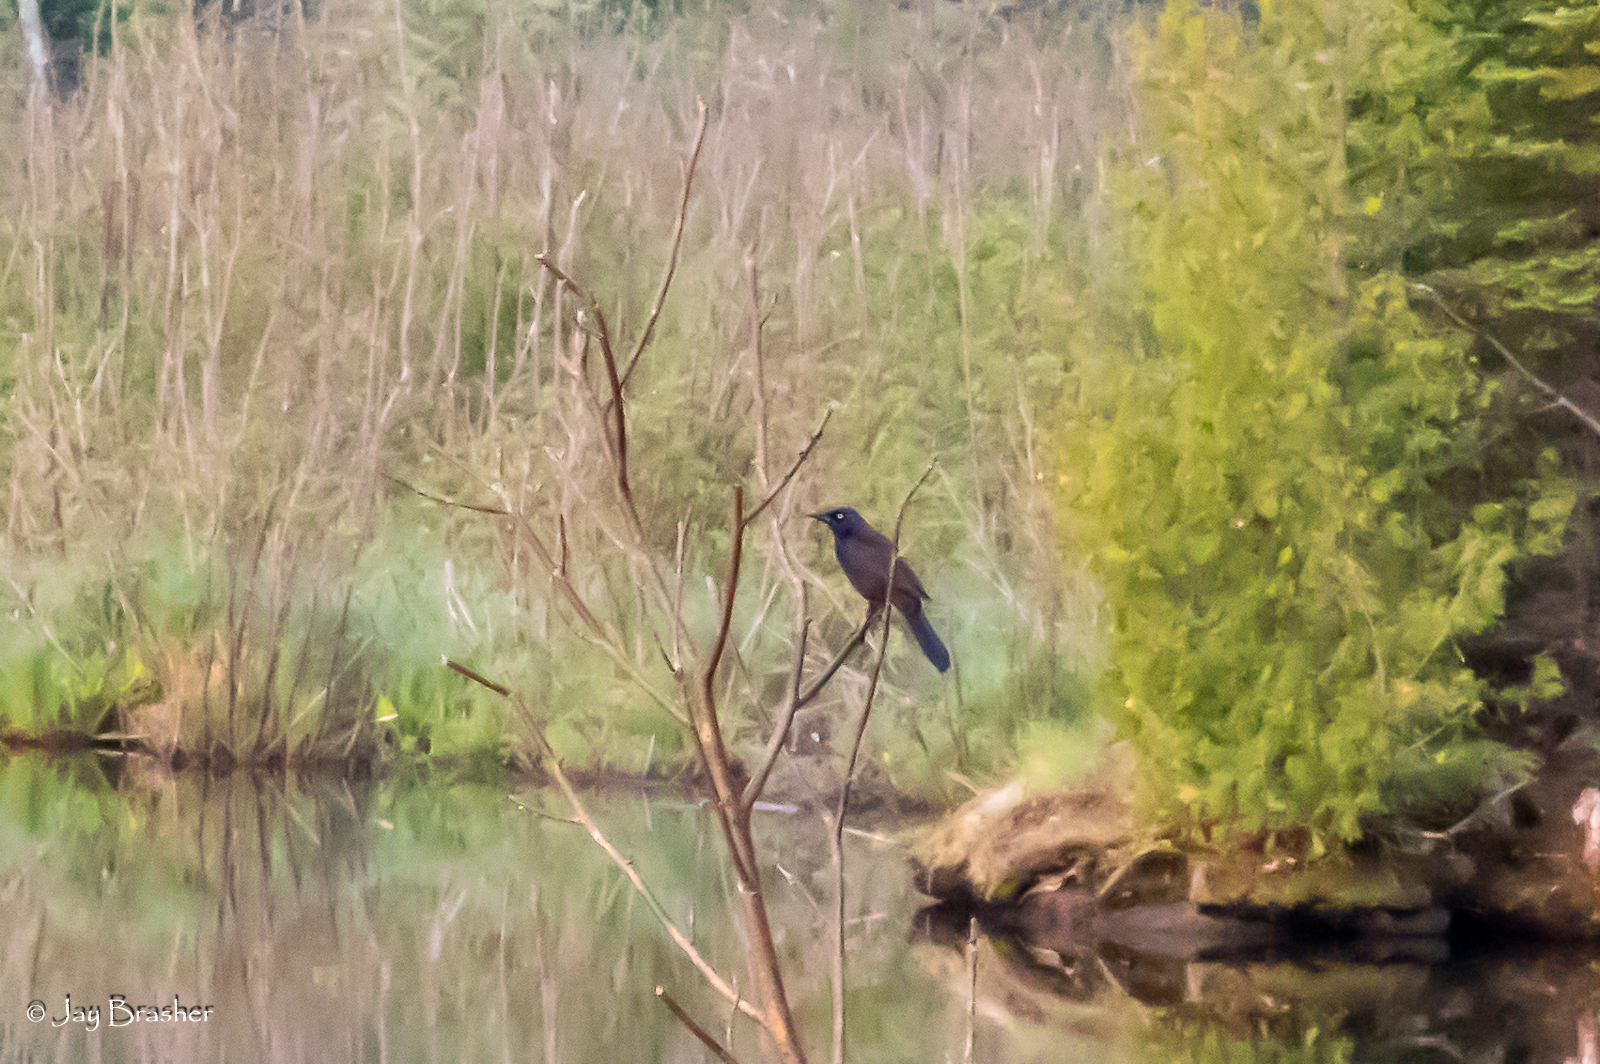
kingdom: Animalia
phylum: Chordata
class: Aves
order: Passeriformes
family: Icteridae
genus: Quiscalus
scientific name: Quiscalus quiscula
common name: Common grackle
